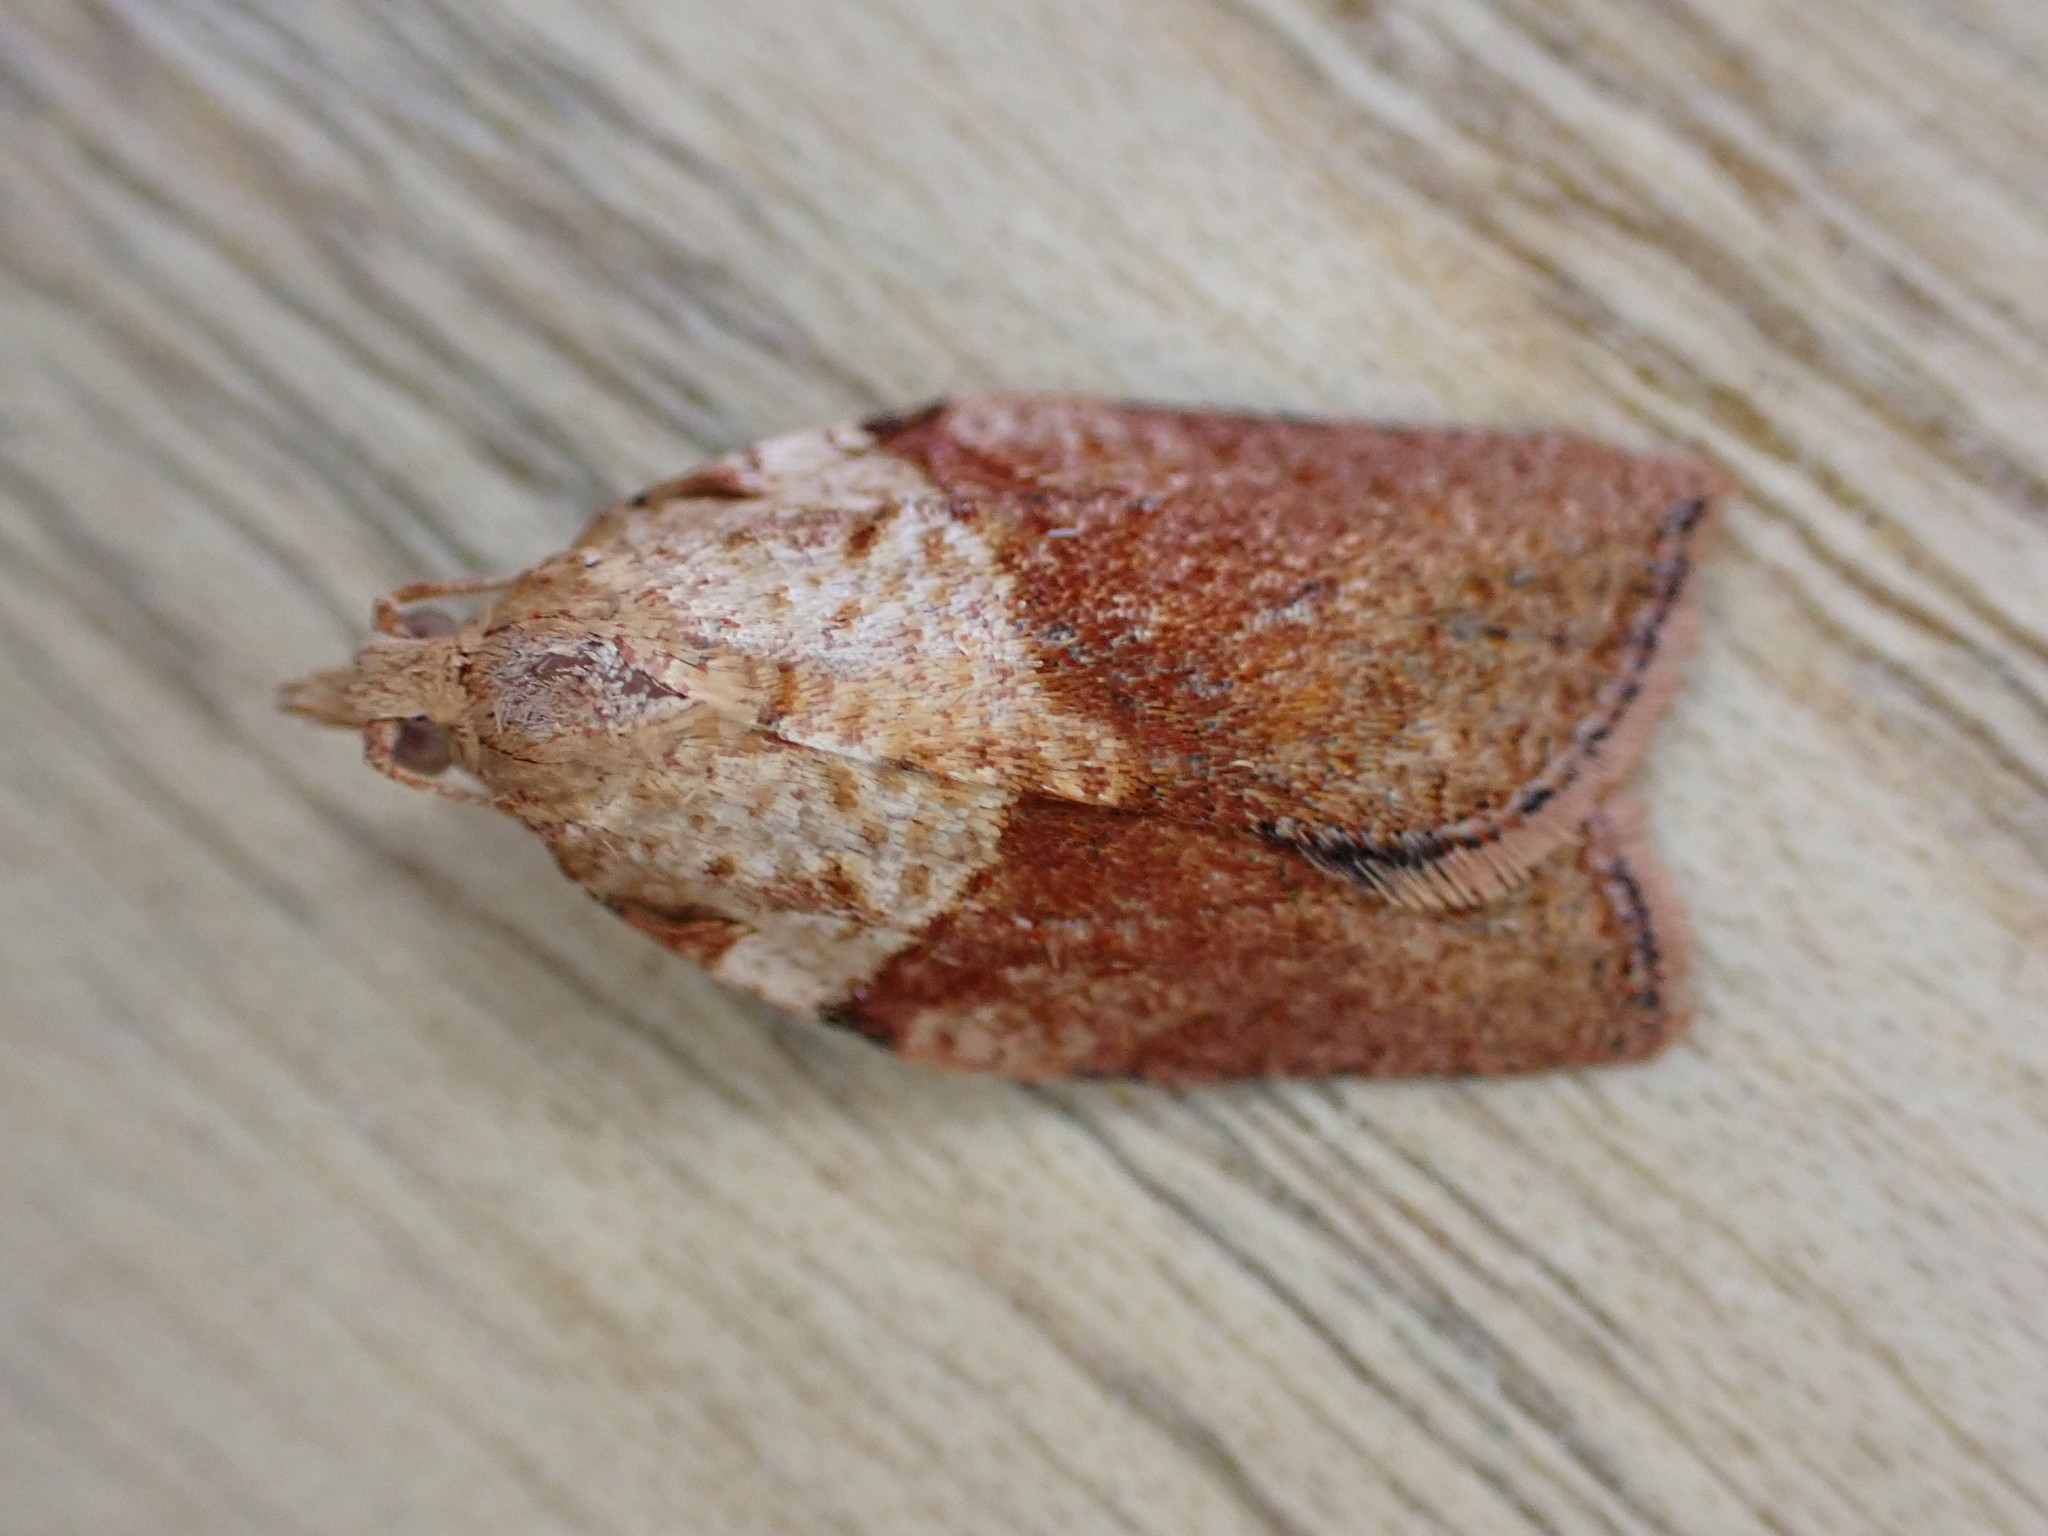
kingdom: Animalia
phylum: Arthropoda
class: Insecta
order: Lepidoptera
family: Tortricidae
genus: Epiphyas
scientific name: Epiphyas postvittana
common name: Light brown apple moth
